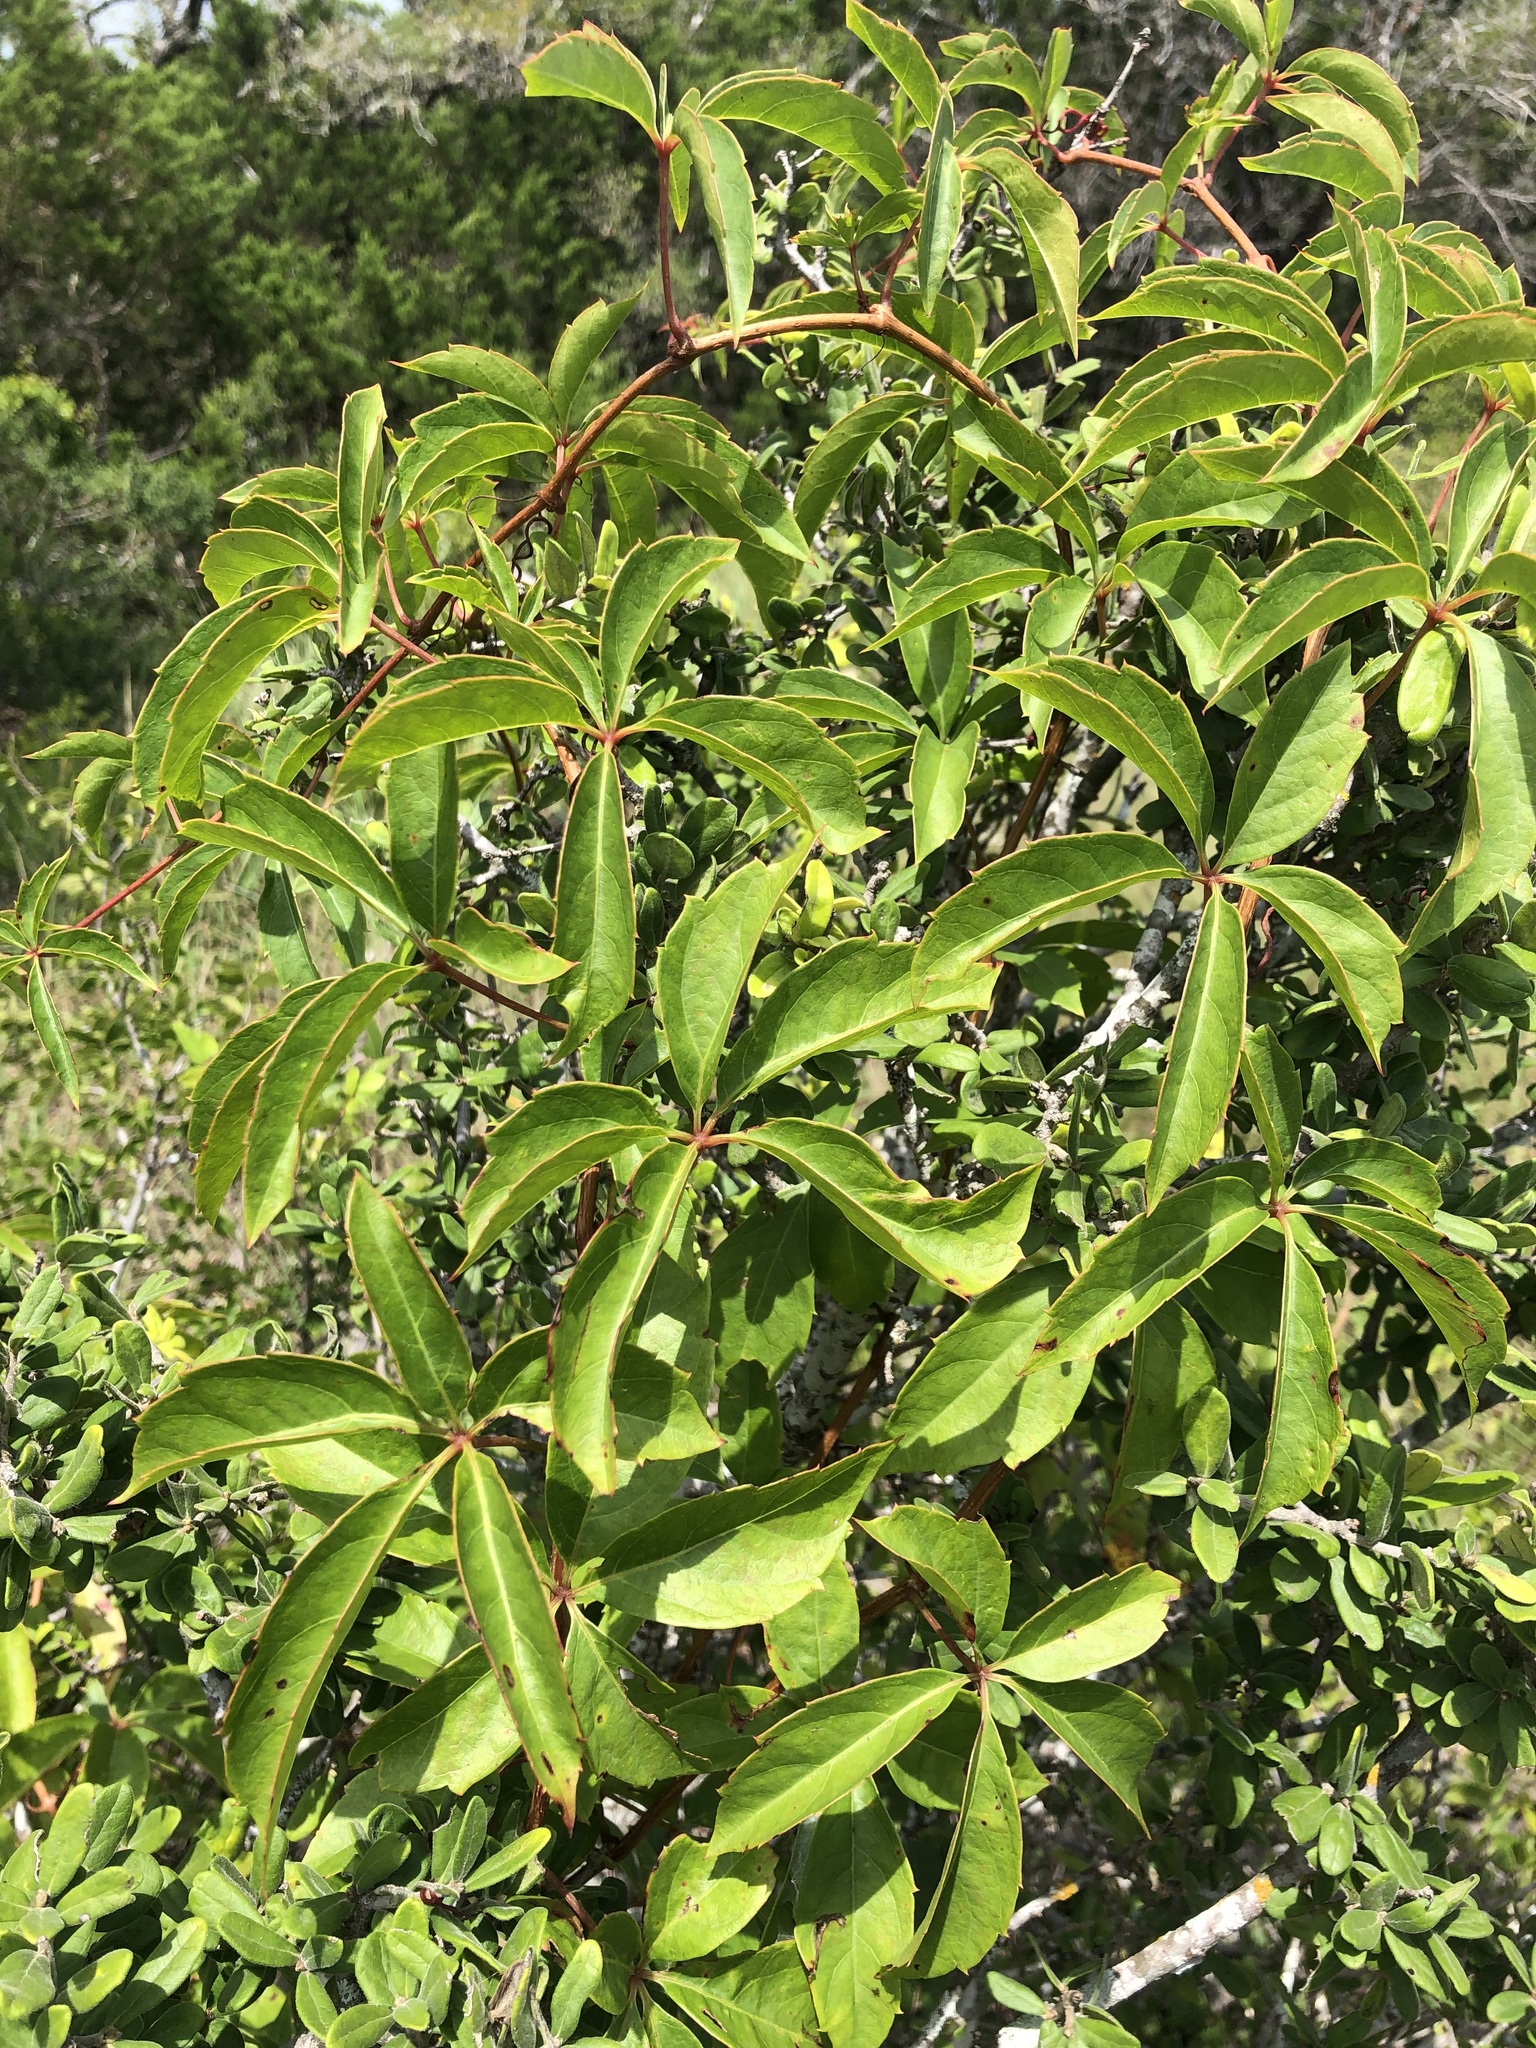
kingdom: Plantae
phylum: Tracheophyta
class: Magnoliopsida
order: Vitales
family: Vitaceae
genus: Parthenocissus
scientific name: Parthenocissus quinquefolia
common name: Virginia-creeper
